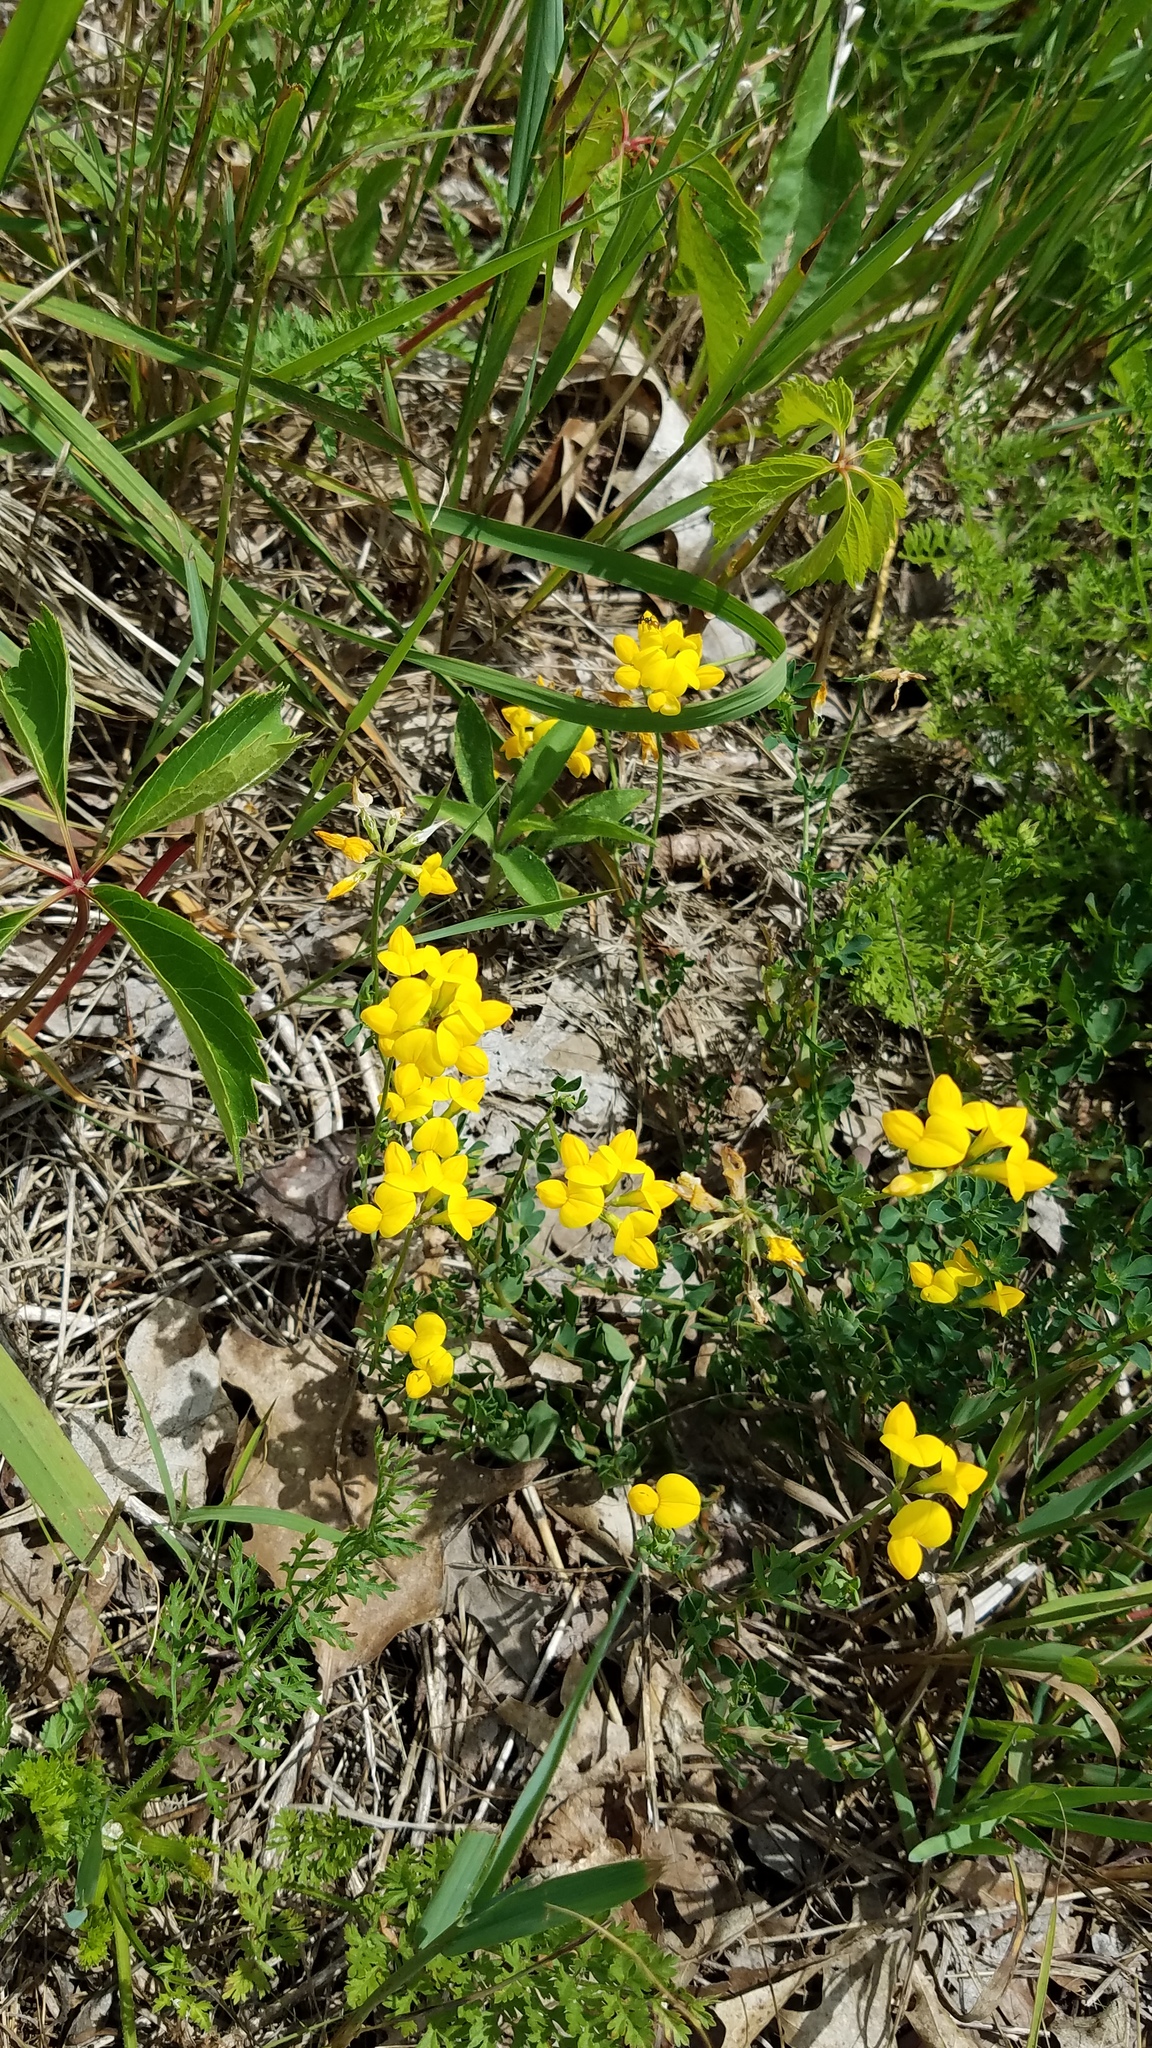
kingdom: Plantae
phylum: Tracheophyta
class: Magnoliopsida
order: Fabales
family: Fabaceae
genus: Lotus
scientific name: Lotus corniculatus
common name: Common bird's-foot-trefoil
